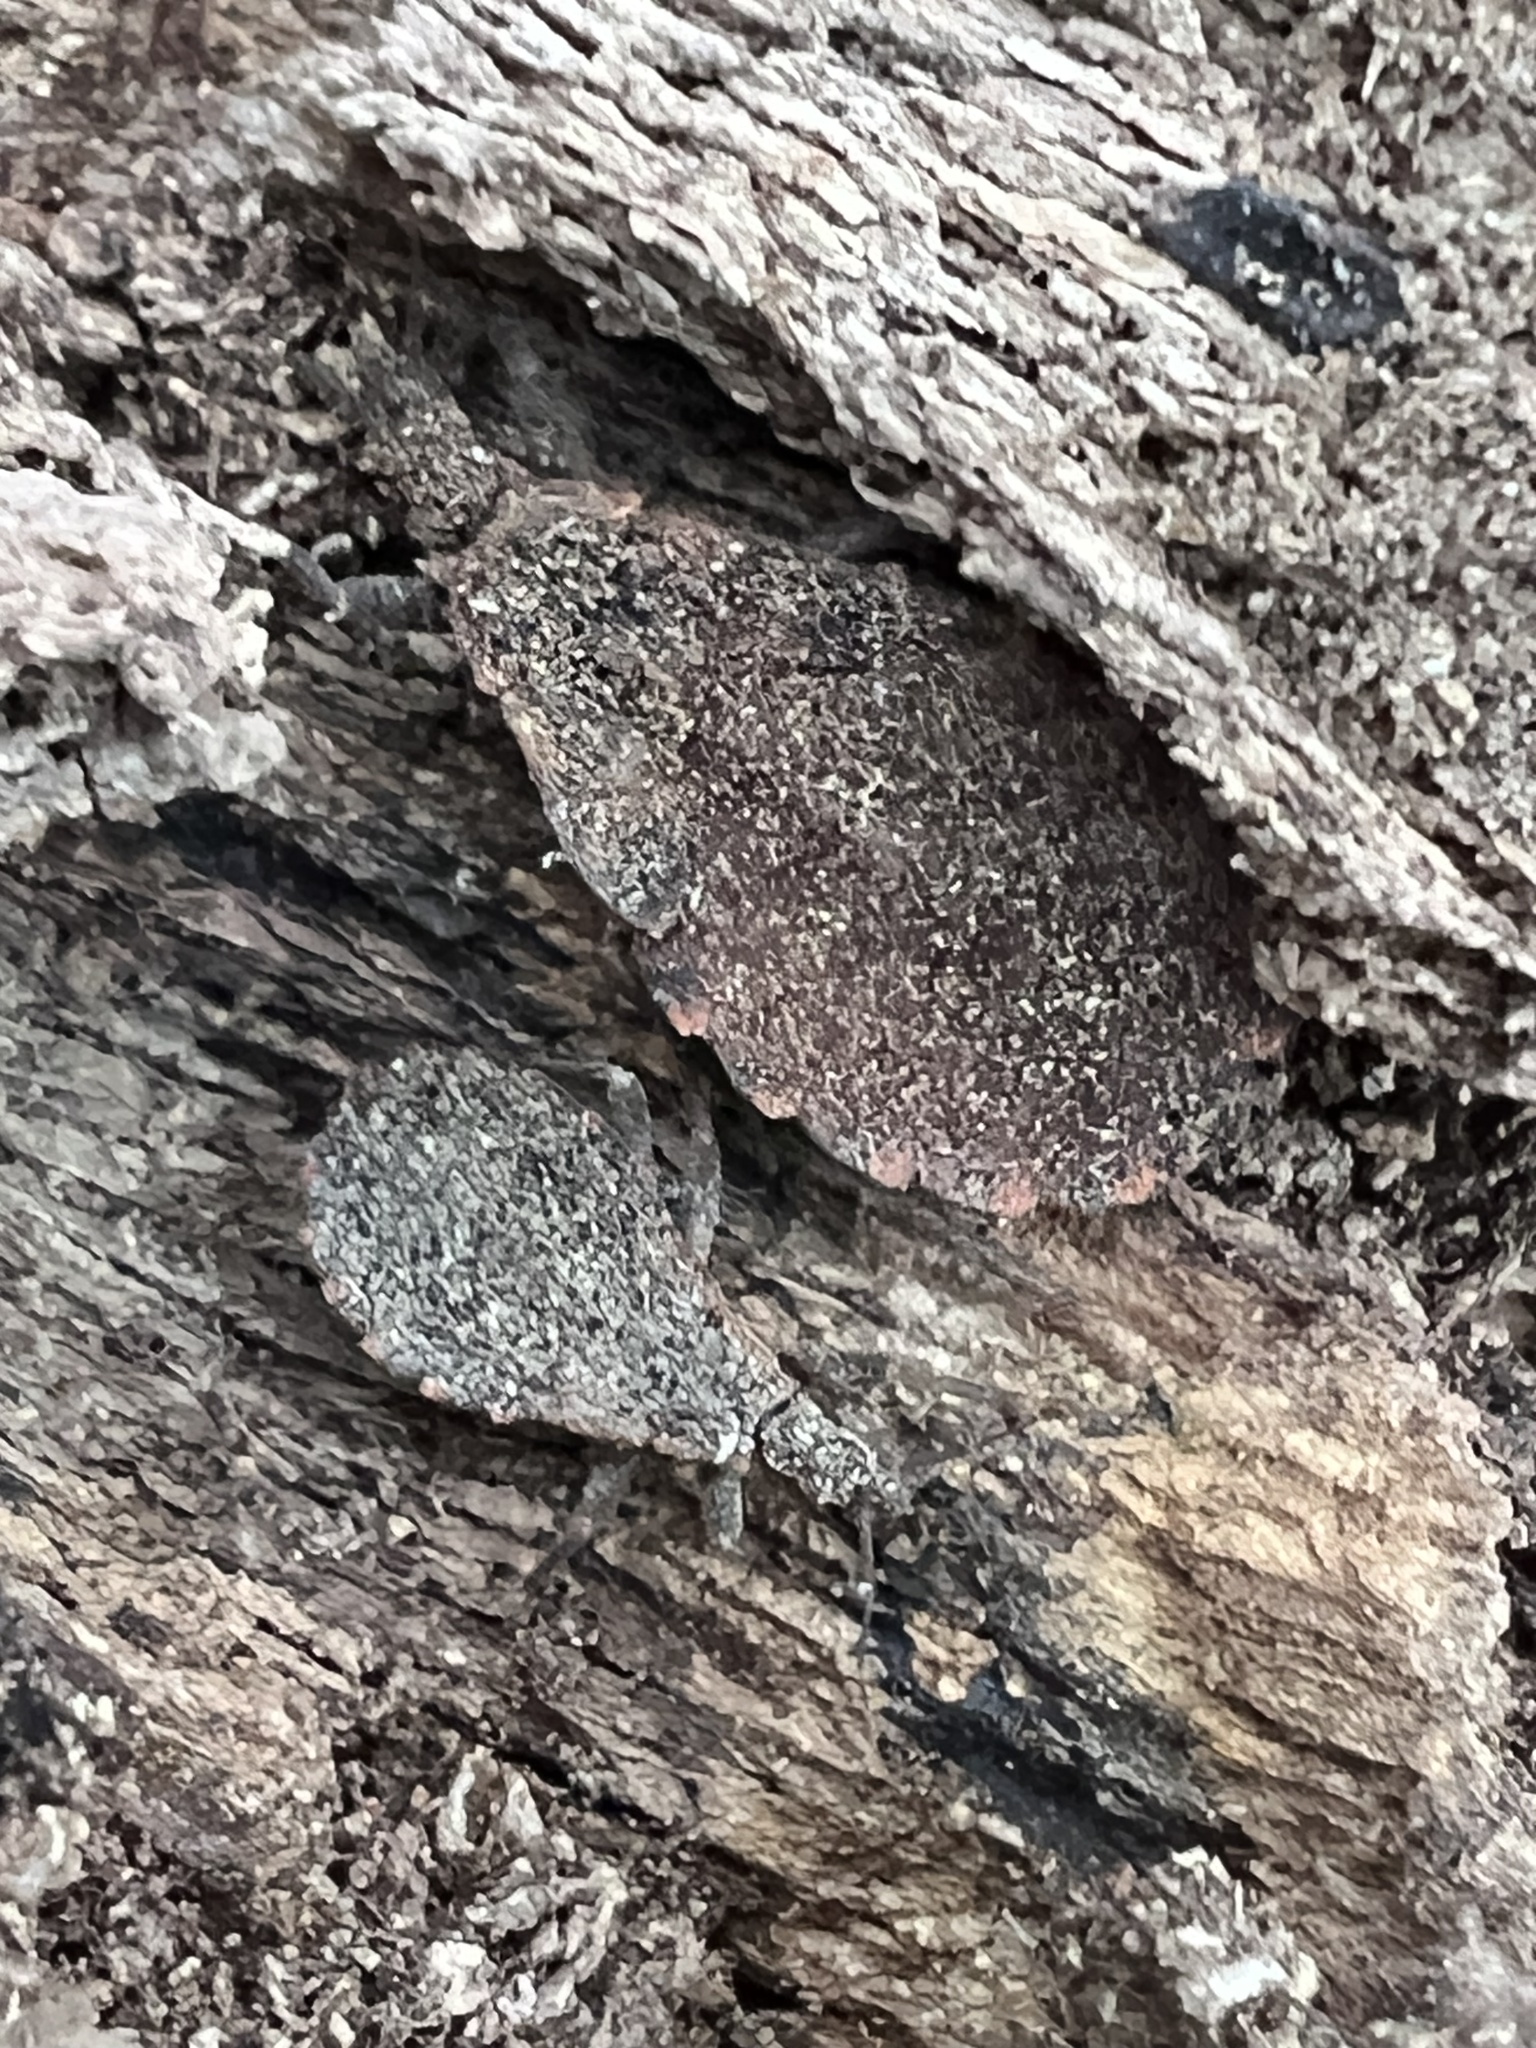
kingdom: Animalia
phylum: Arthropoda
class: Insecta
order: Hemiptera
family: Reduviidae
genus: Triatoma
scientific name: Triatoma sanguisuga
